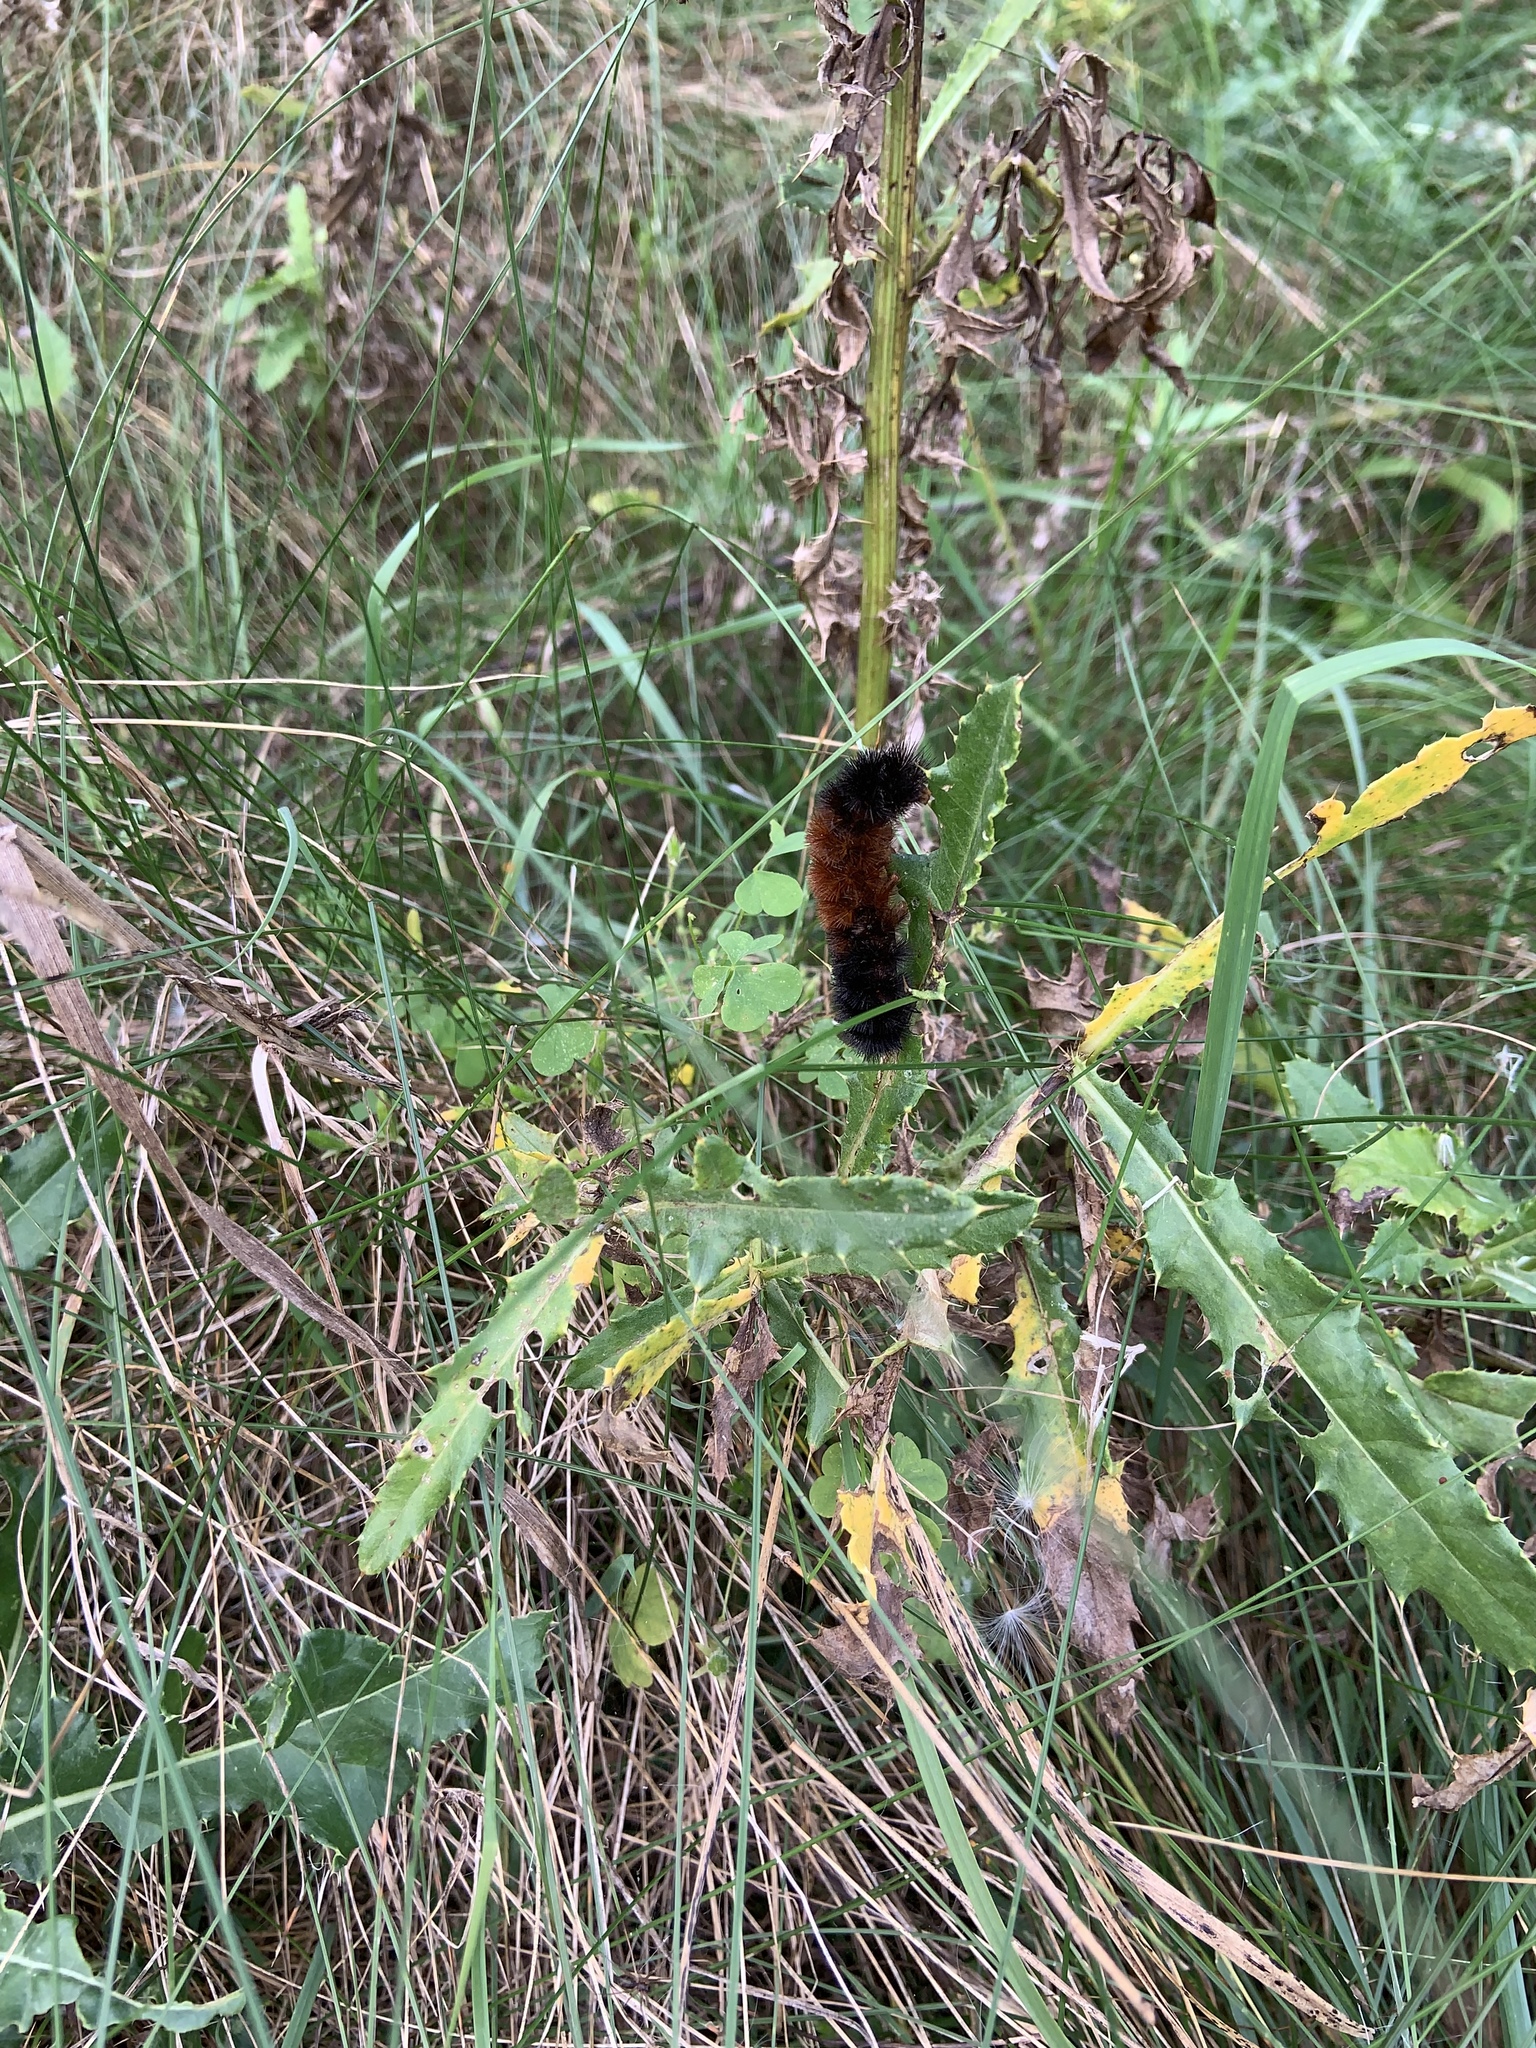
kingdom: Animalia
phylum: Arthropoda
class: Insecta
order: Lepidoptera
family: Erebidae
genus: Pyrrharctia
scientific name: Pyrrharctia isabella
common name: Isabella tiger moth
